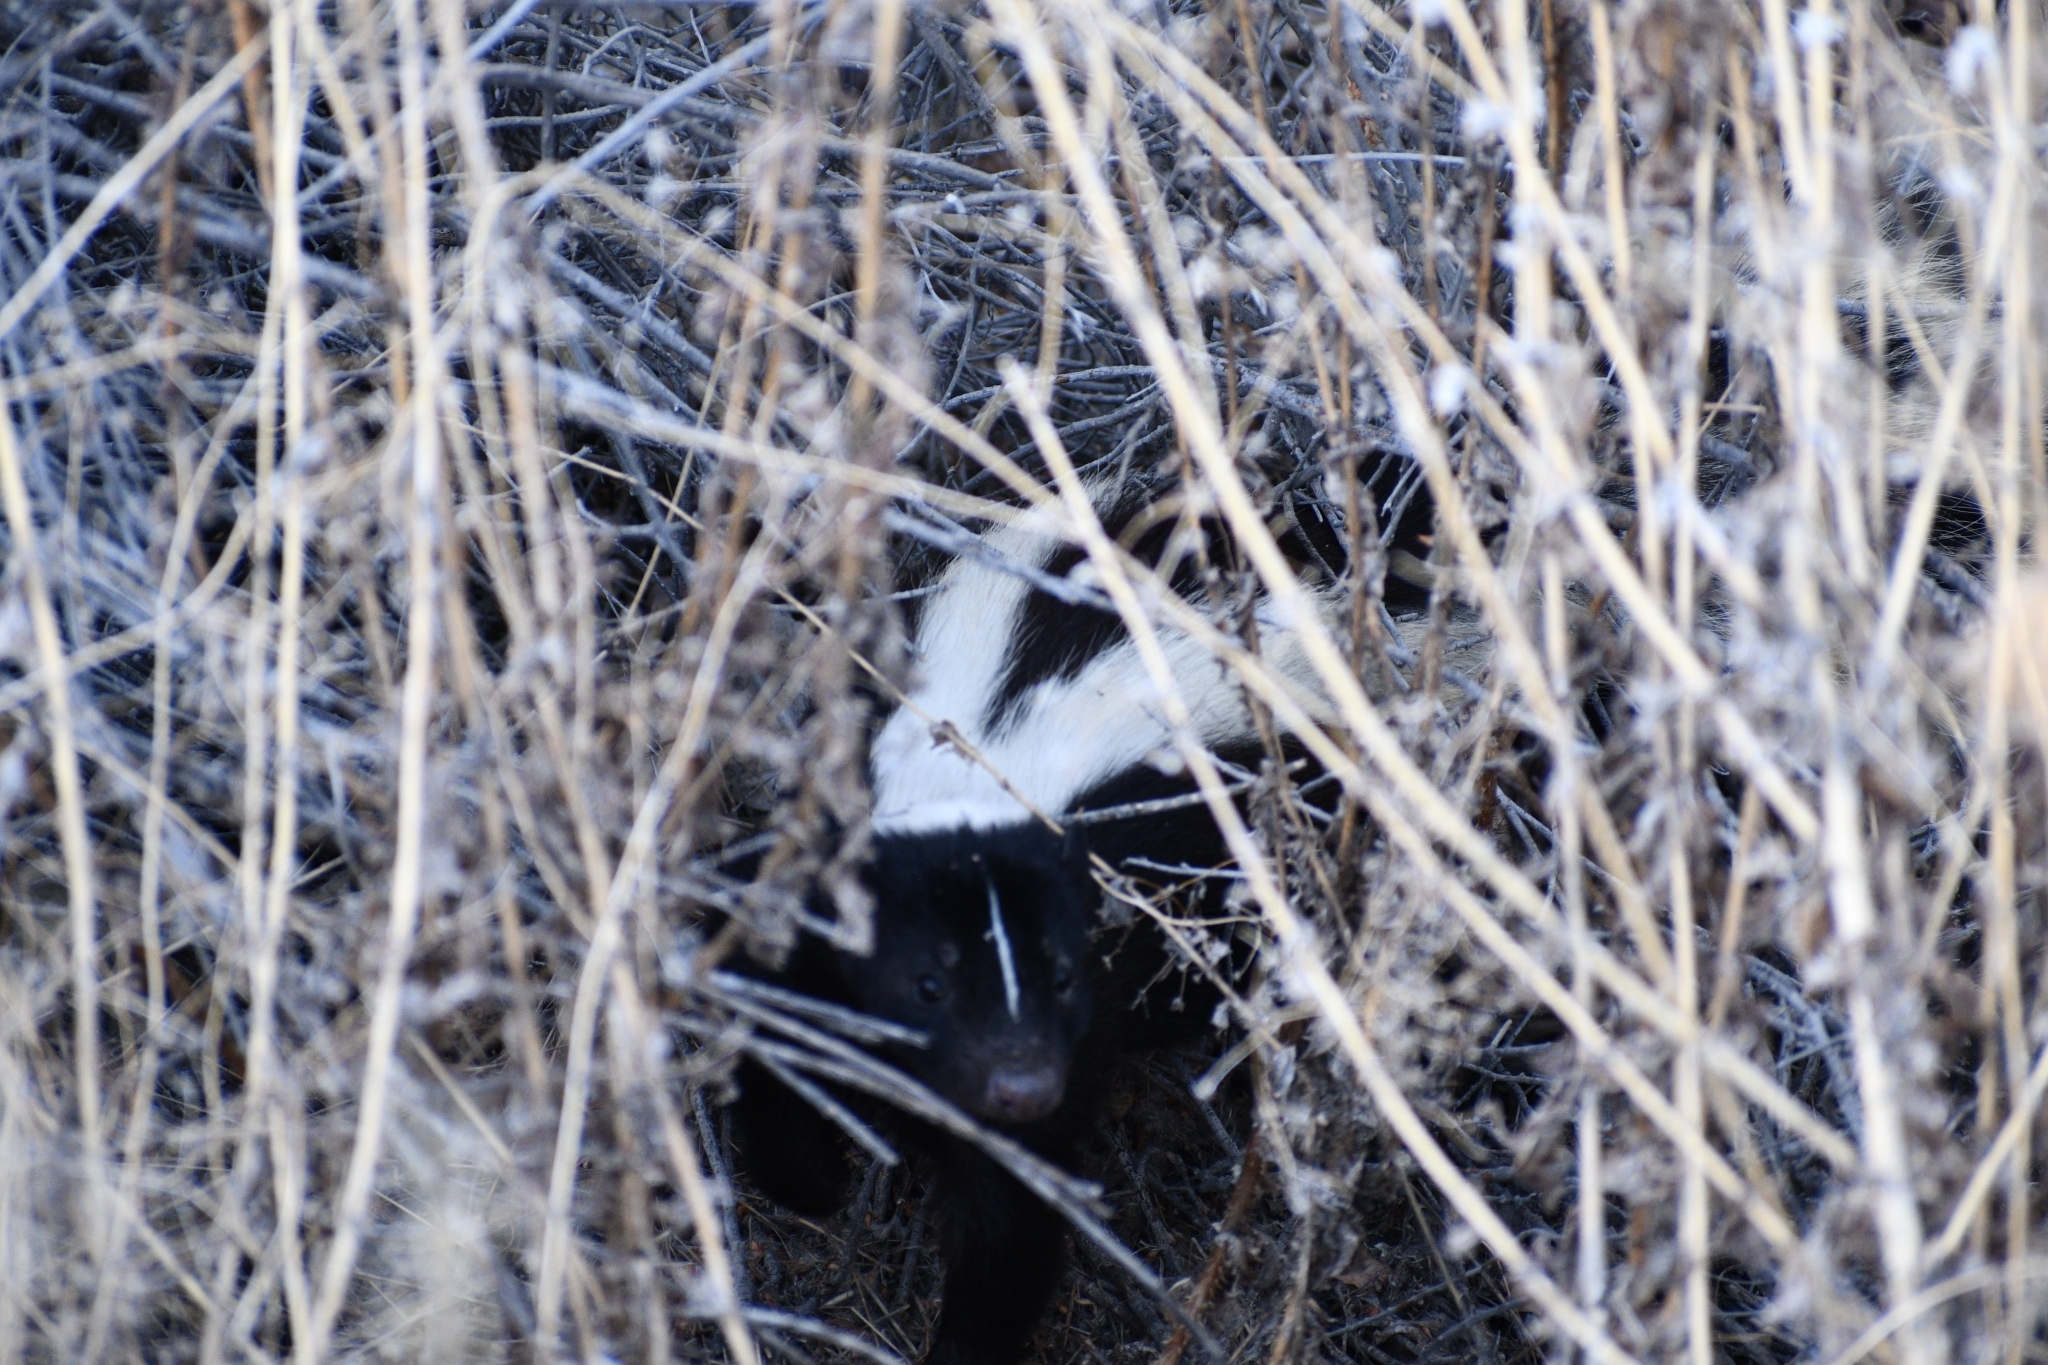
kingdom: Animalia
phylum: Chordata
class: Mammalia
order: Carnivora
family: Mephitidae
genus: Mephitis
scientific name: Mephitis mephitis
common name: Striped skunk
